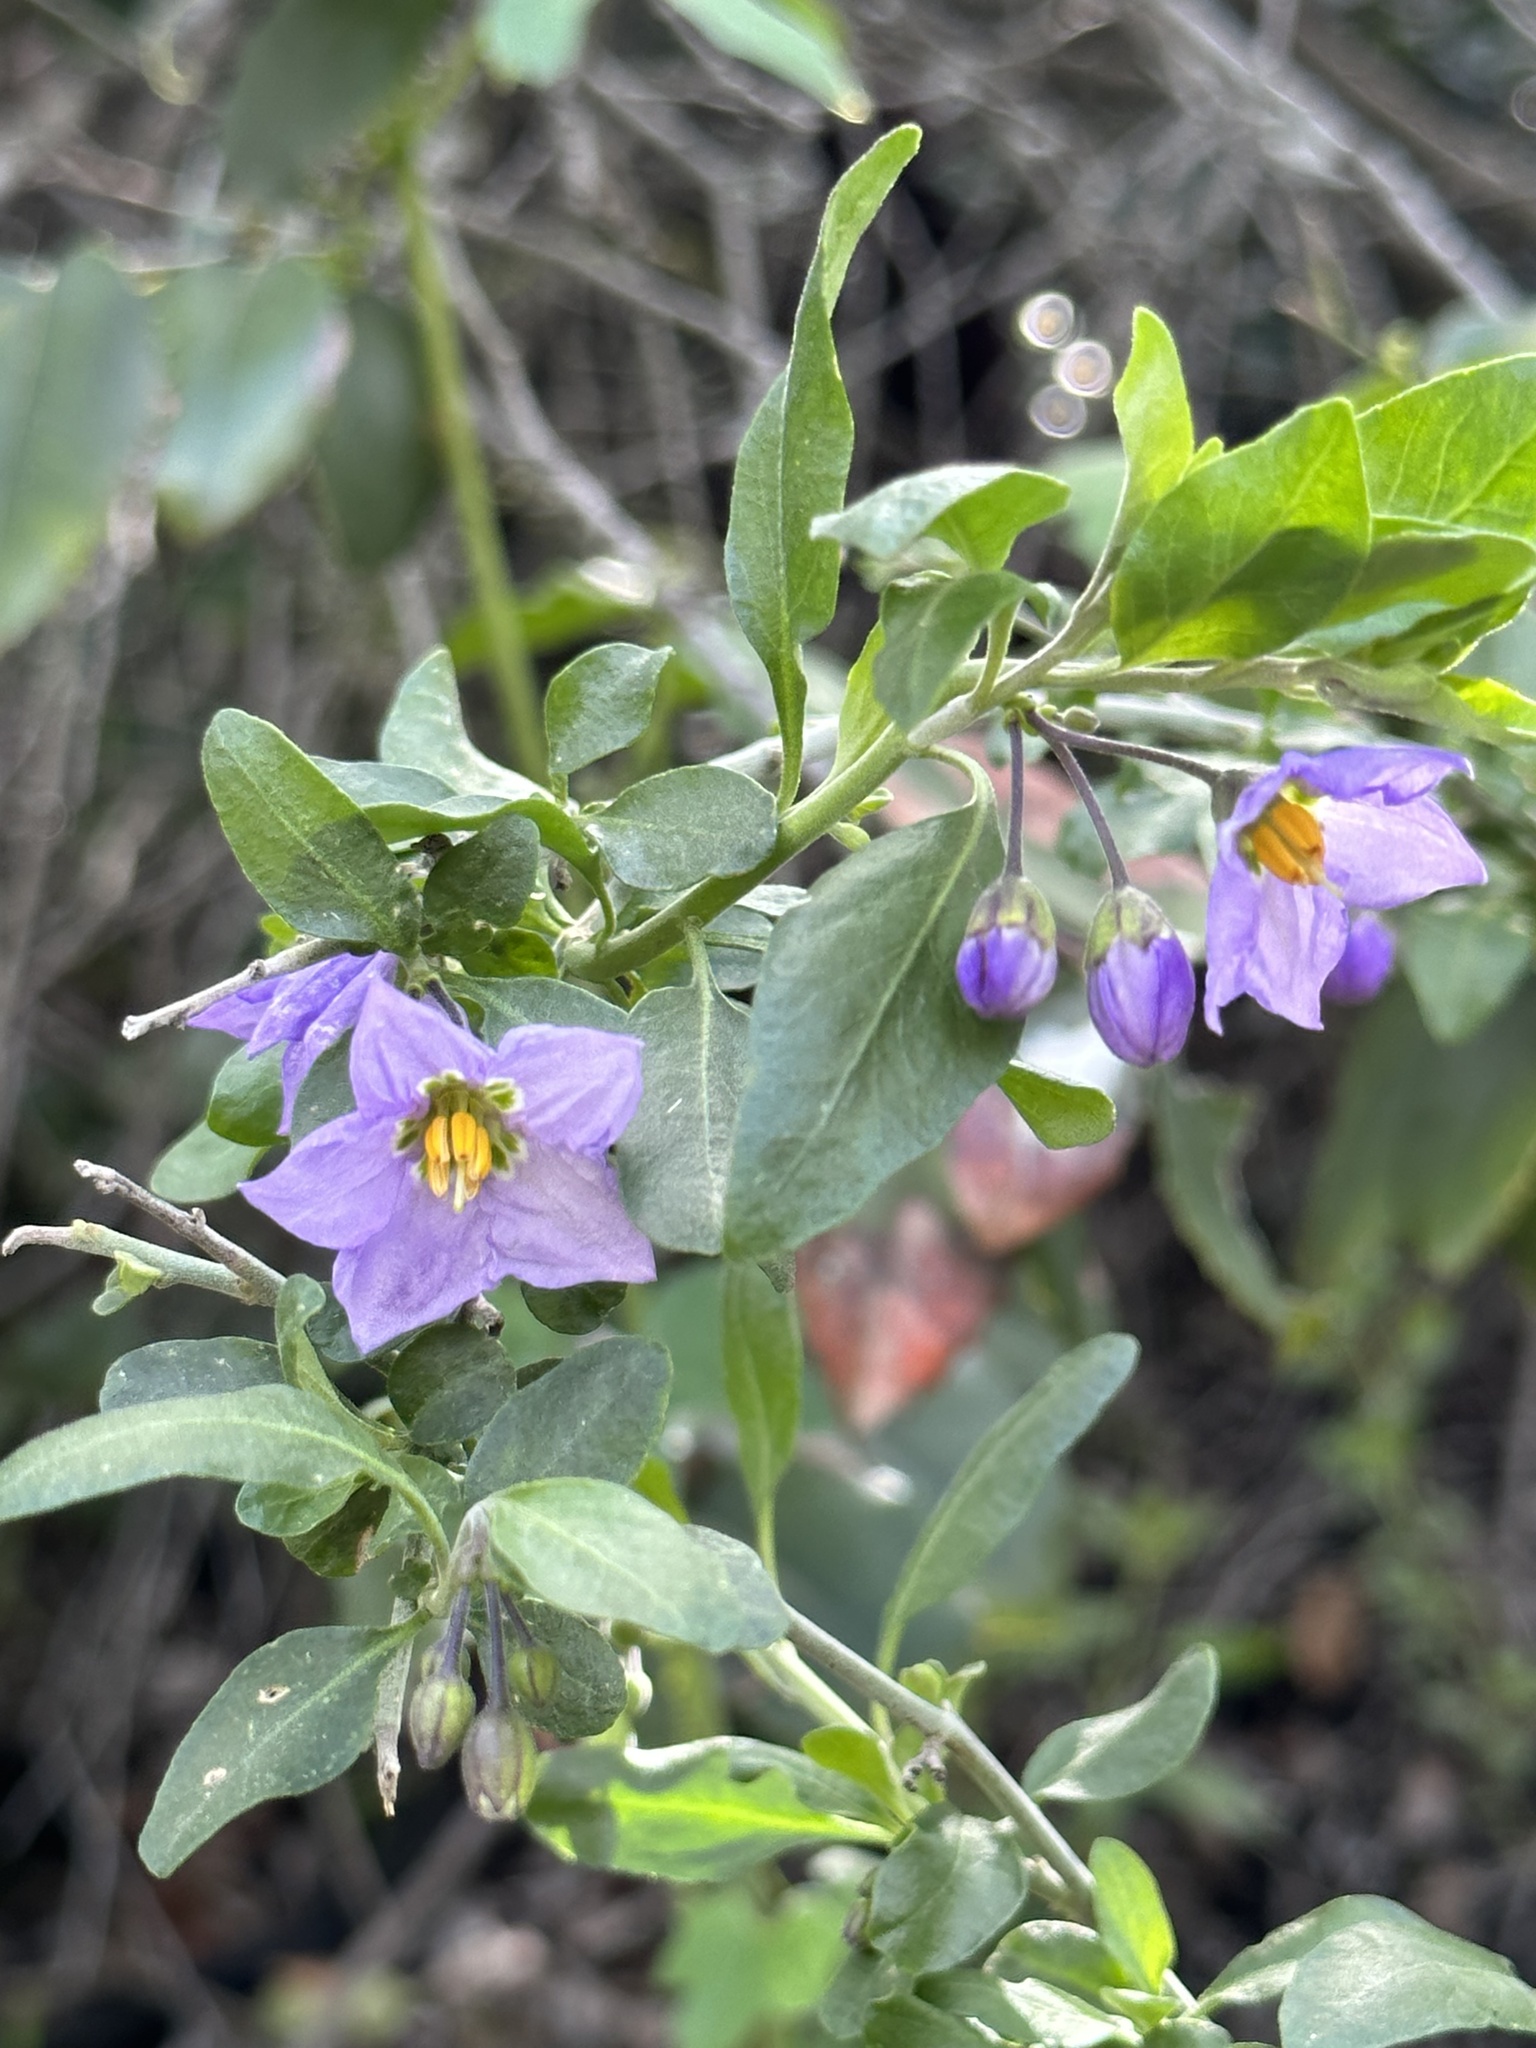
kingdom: Plantae
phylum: Tracheophyta
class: Magnoliopsida
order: Solanales
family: Solanaceae
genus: Solanum
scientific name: Solanum umbelliferum
